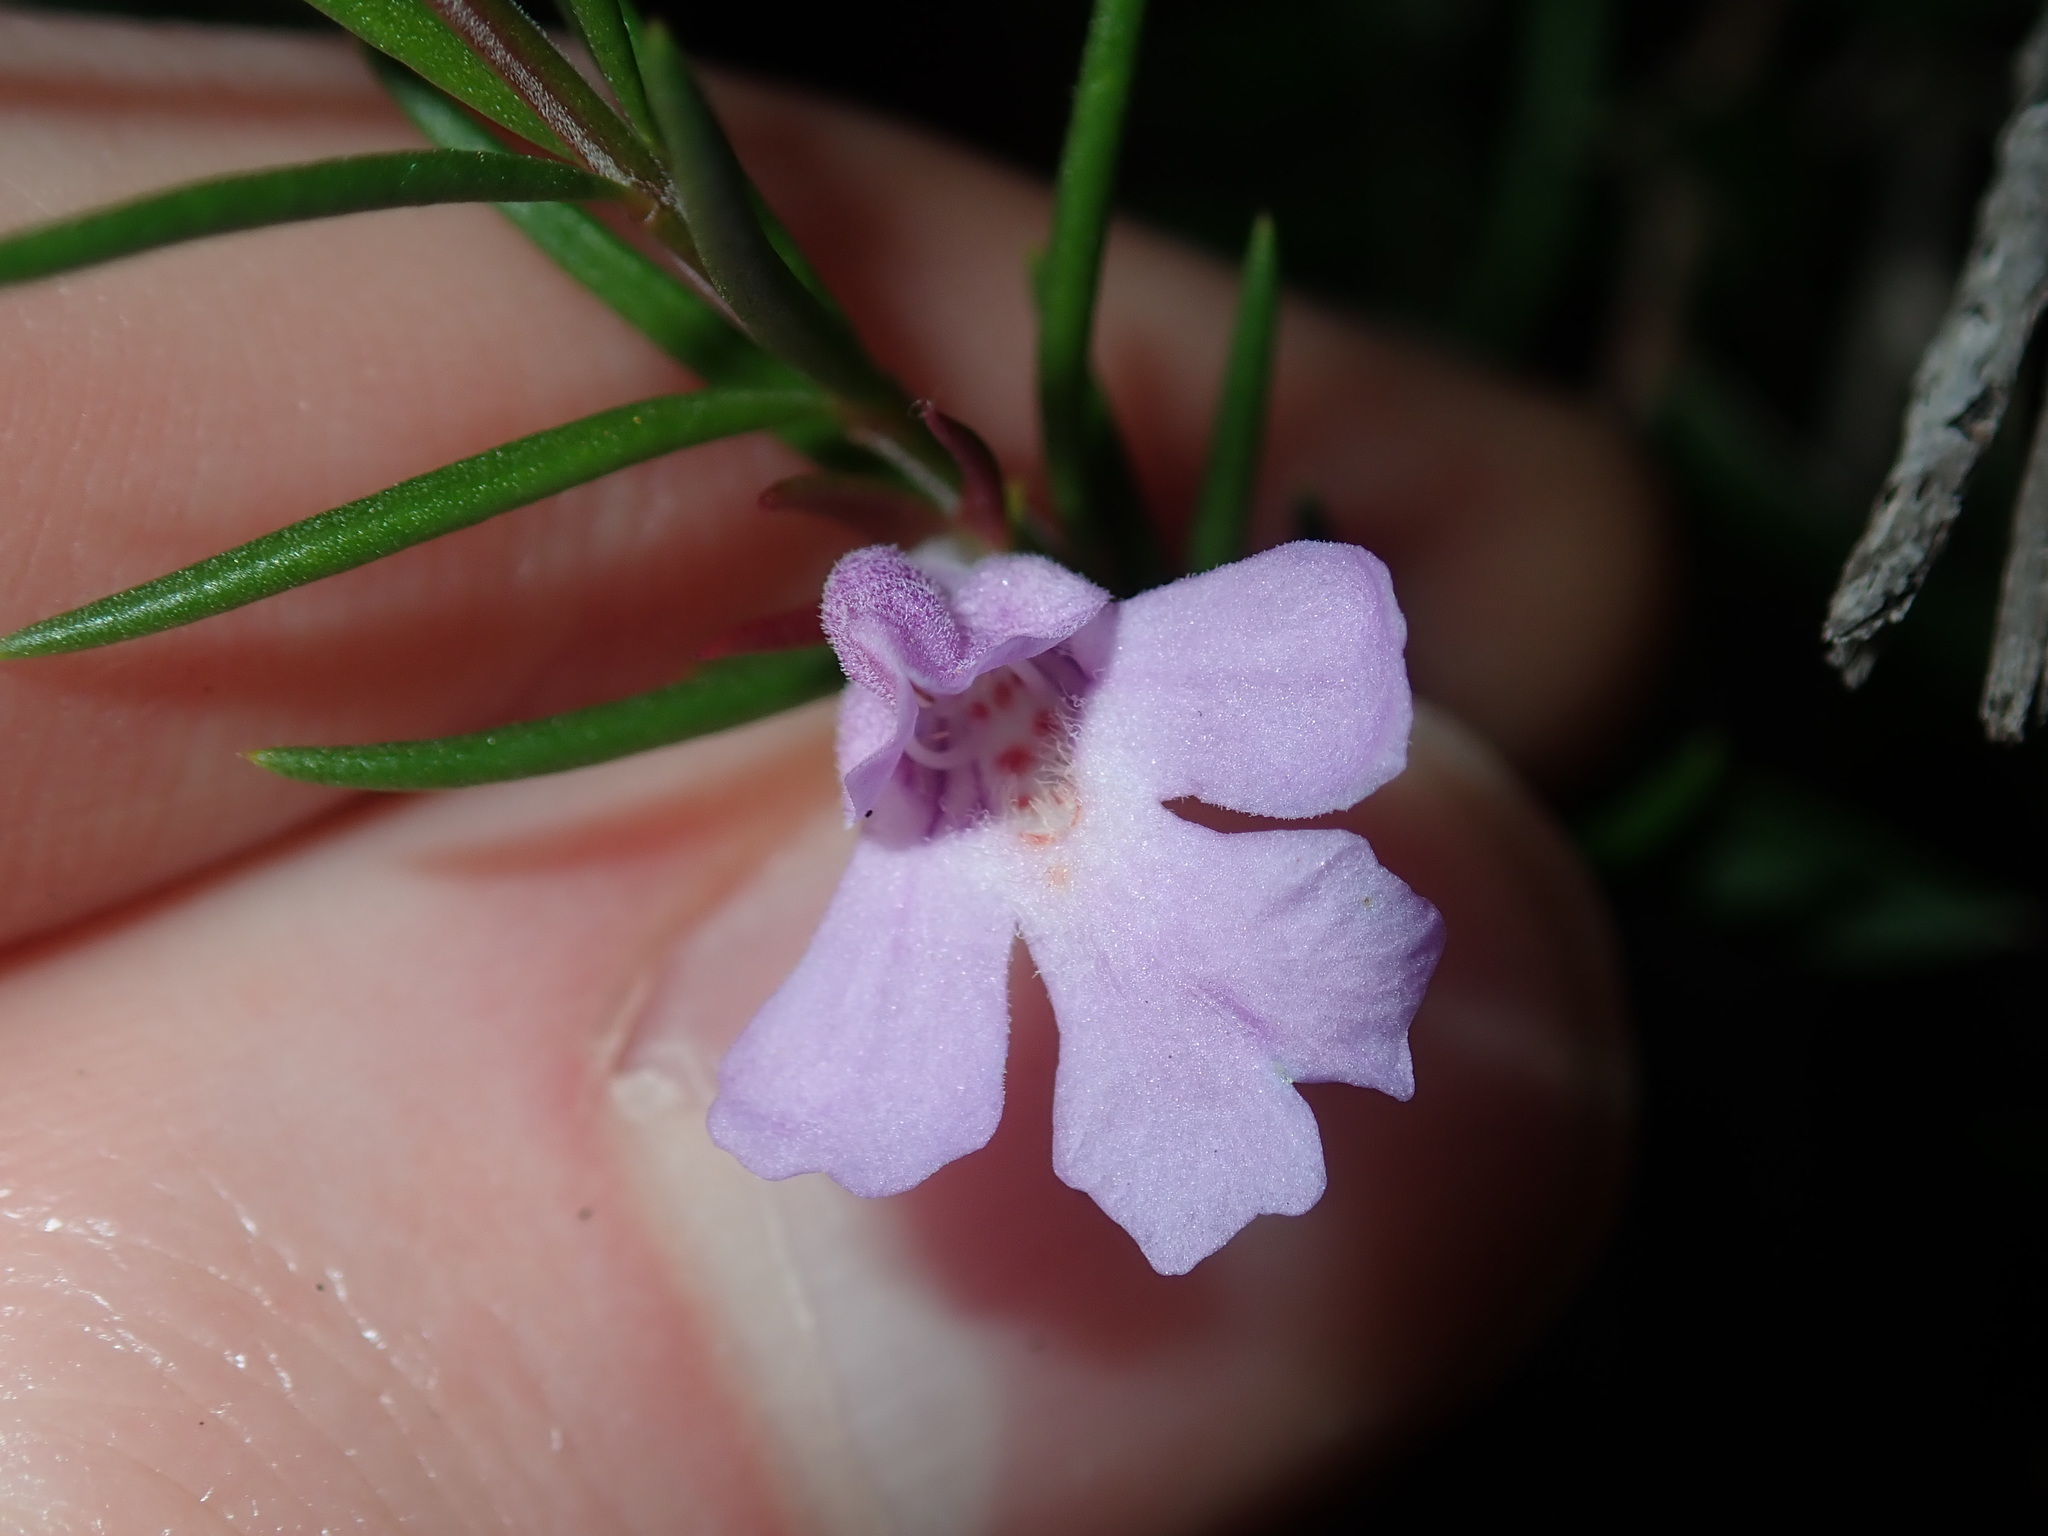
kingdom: Plantae
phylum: Tracheophyta
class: Magnoliopsida
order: Lamiales
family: Lamiaceae
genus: Hemigenia
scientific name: Hemigenia purpurea
